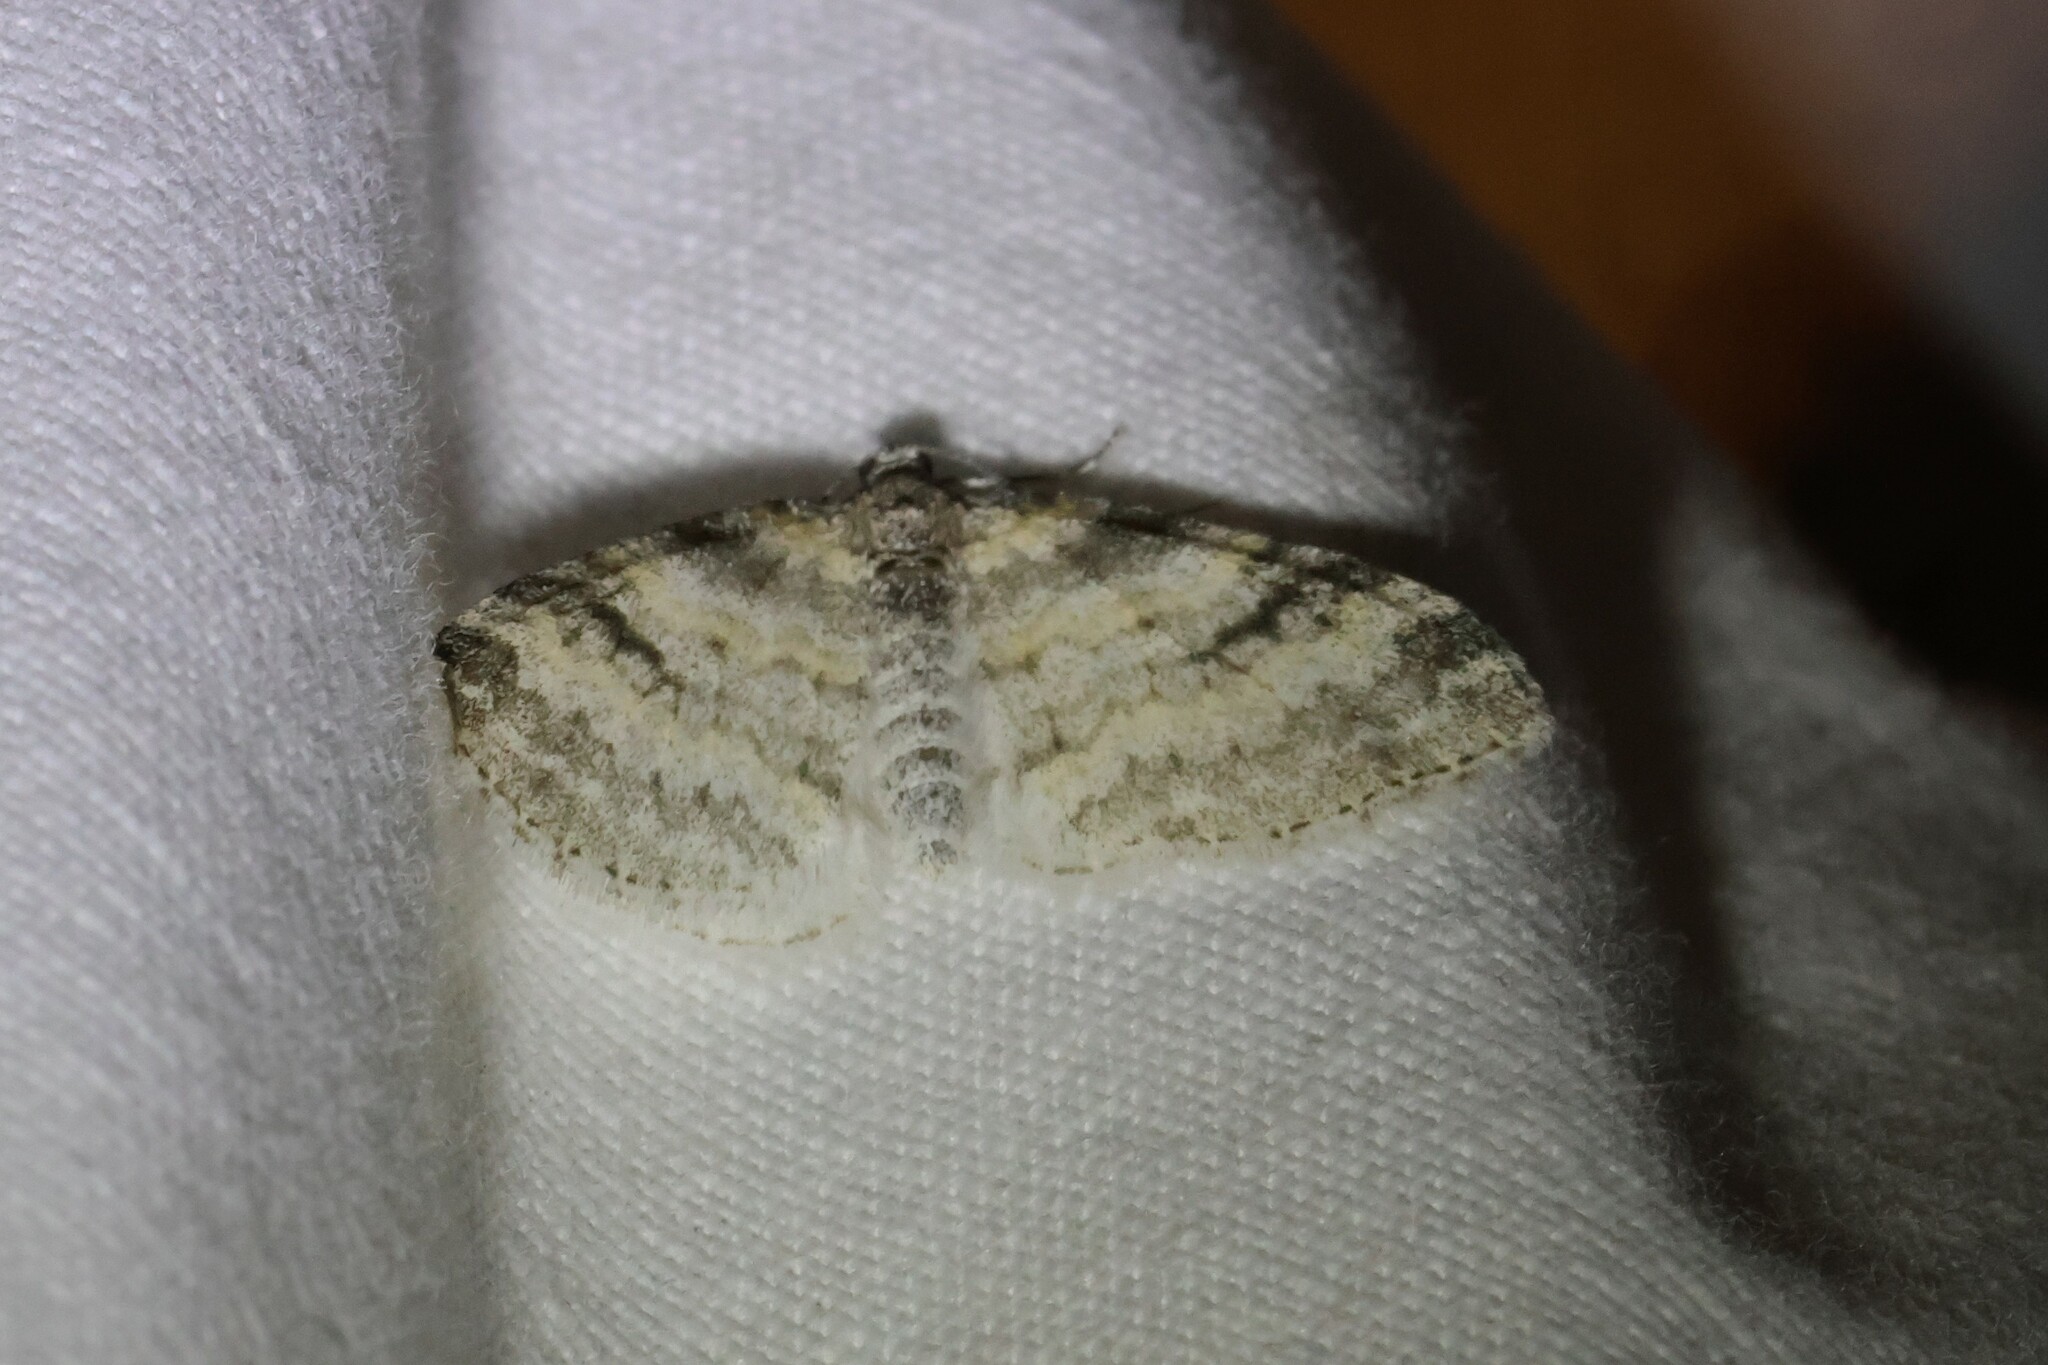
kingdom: Animalia
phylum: Arthropoda
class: Insecta
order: Lepidoptera
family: Geometridae
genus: Lobophora
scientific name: Lobophora nivigerata
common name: Powdered bigwing
